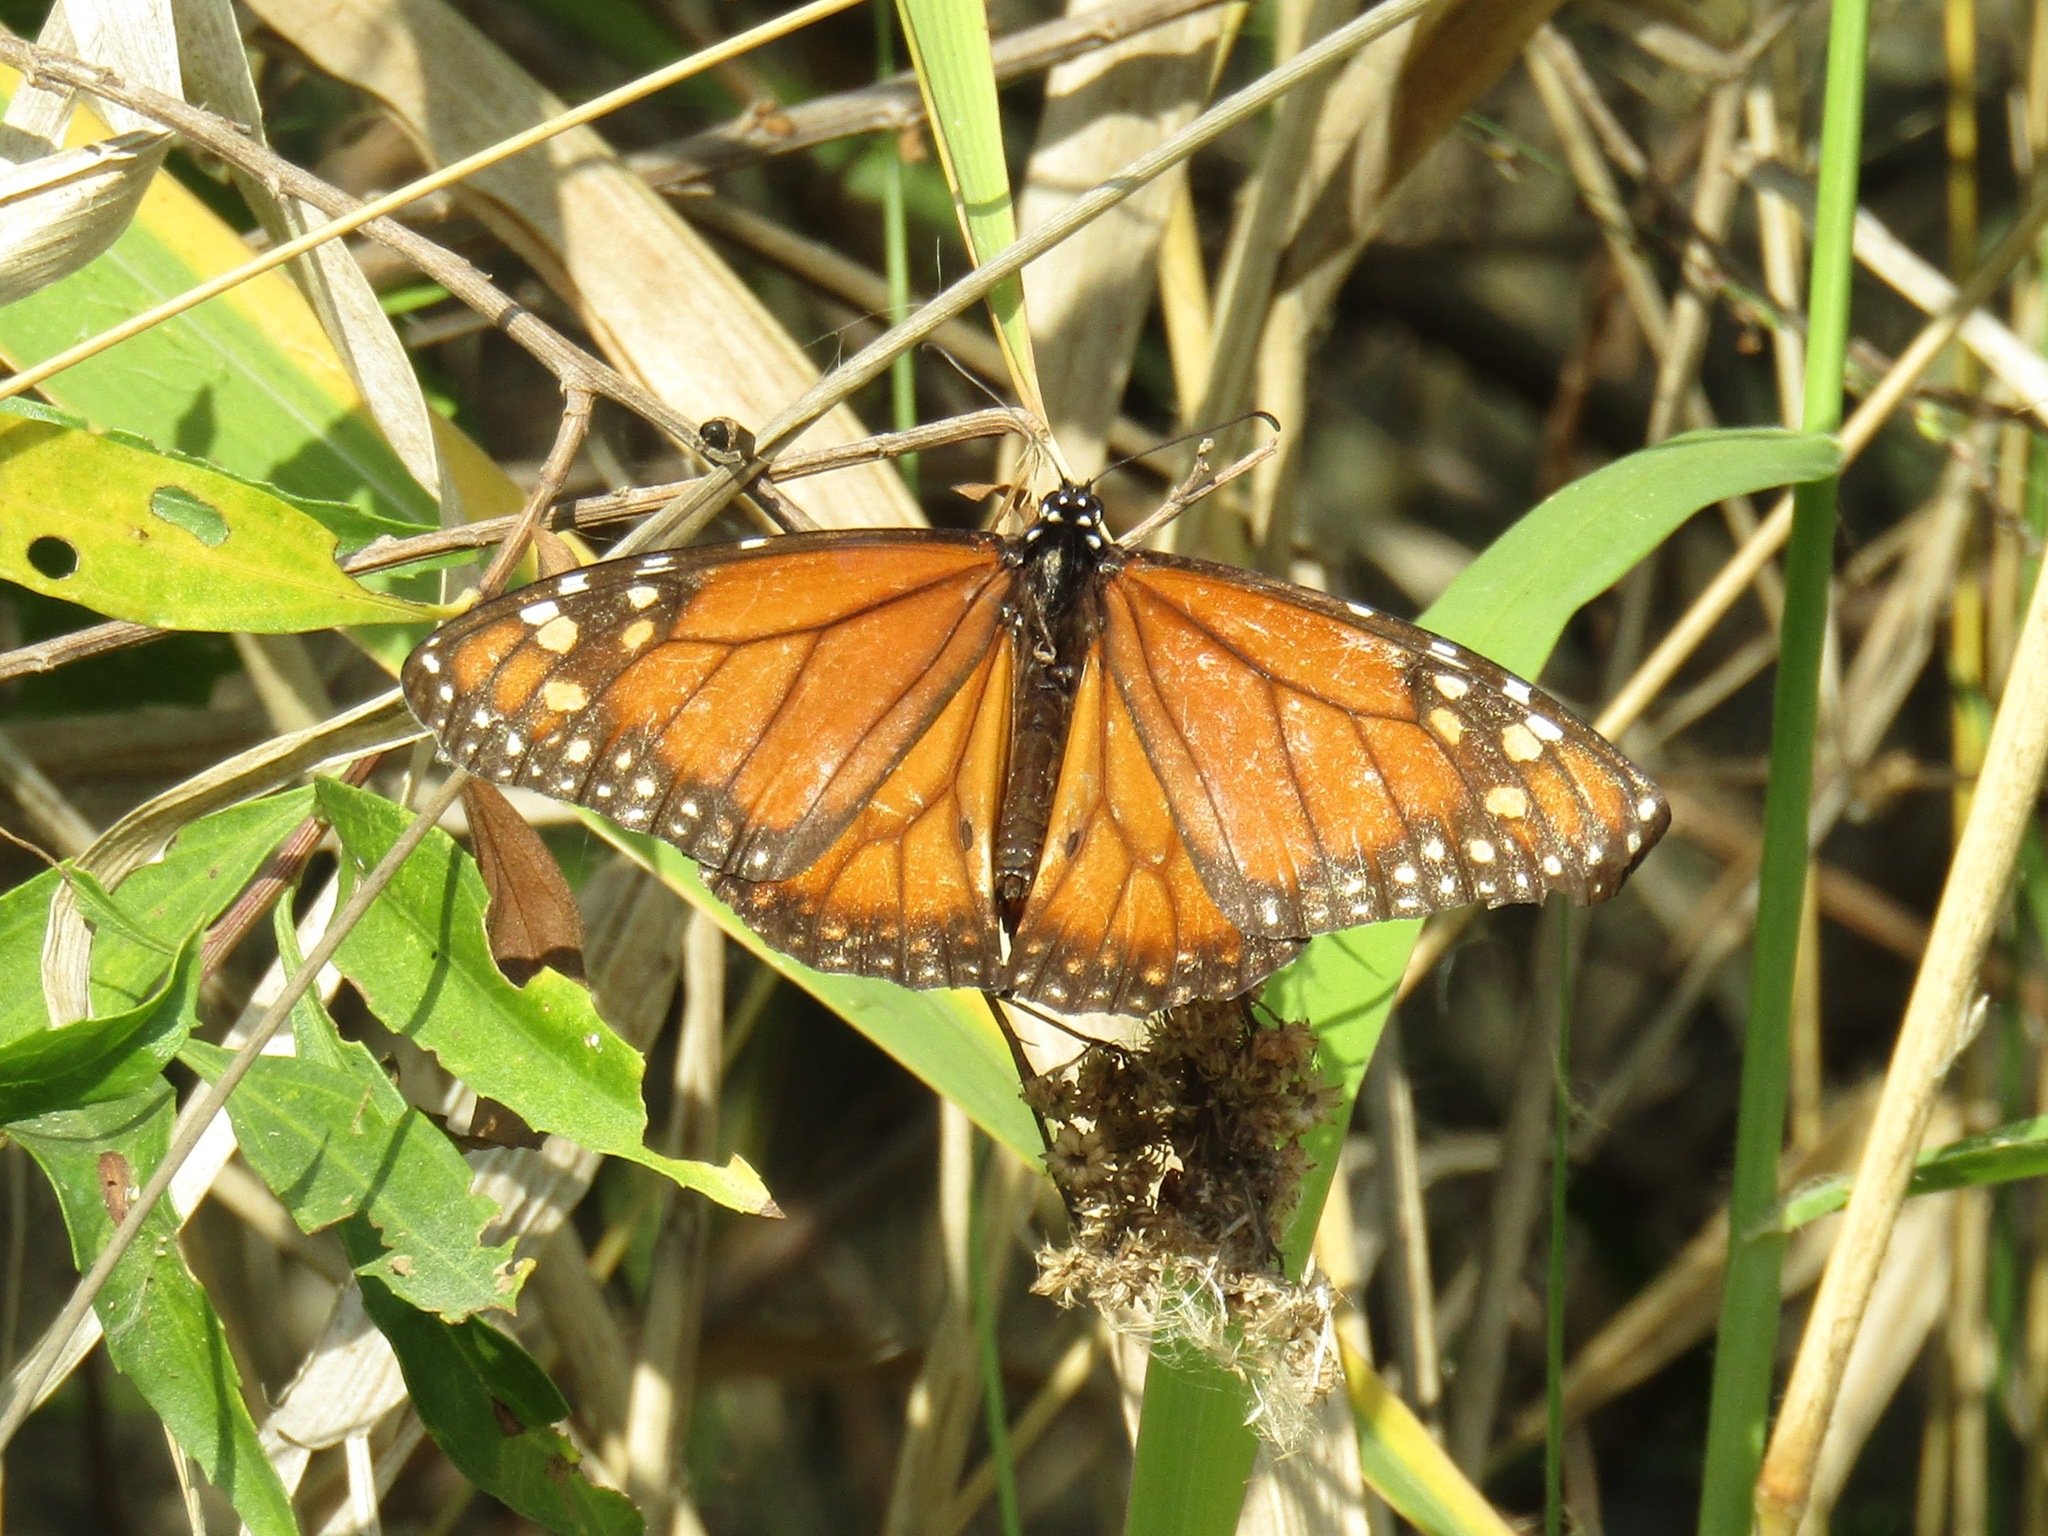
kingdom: Animalia
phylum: Arthropoda
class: Insecta
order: Lepidoptera
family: Nymphalidae
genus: Danaus
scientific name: Danaus erippus
